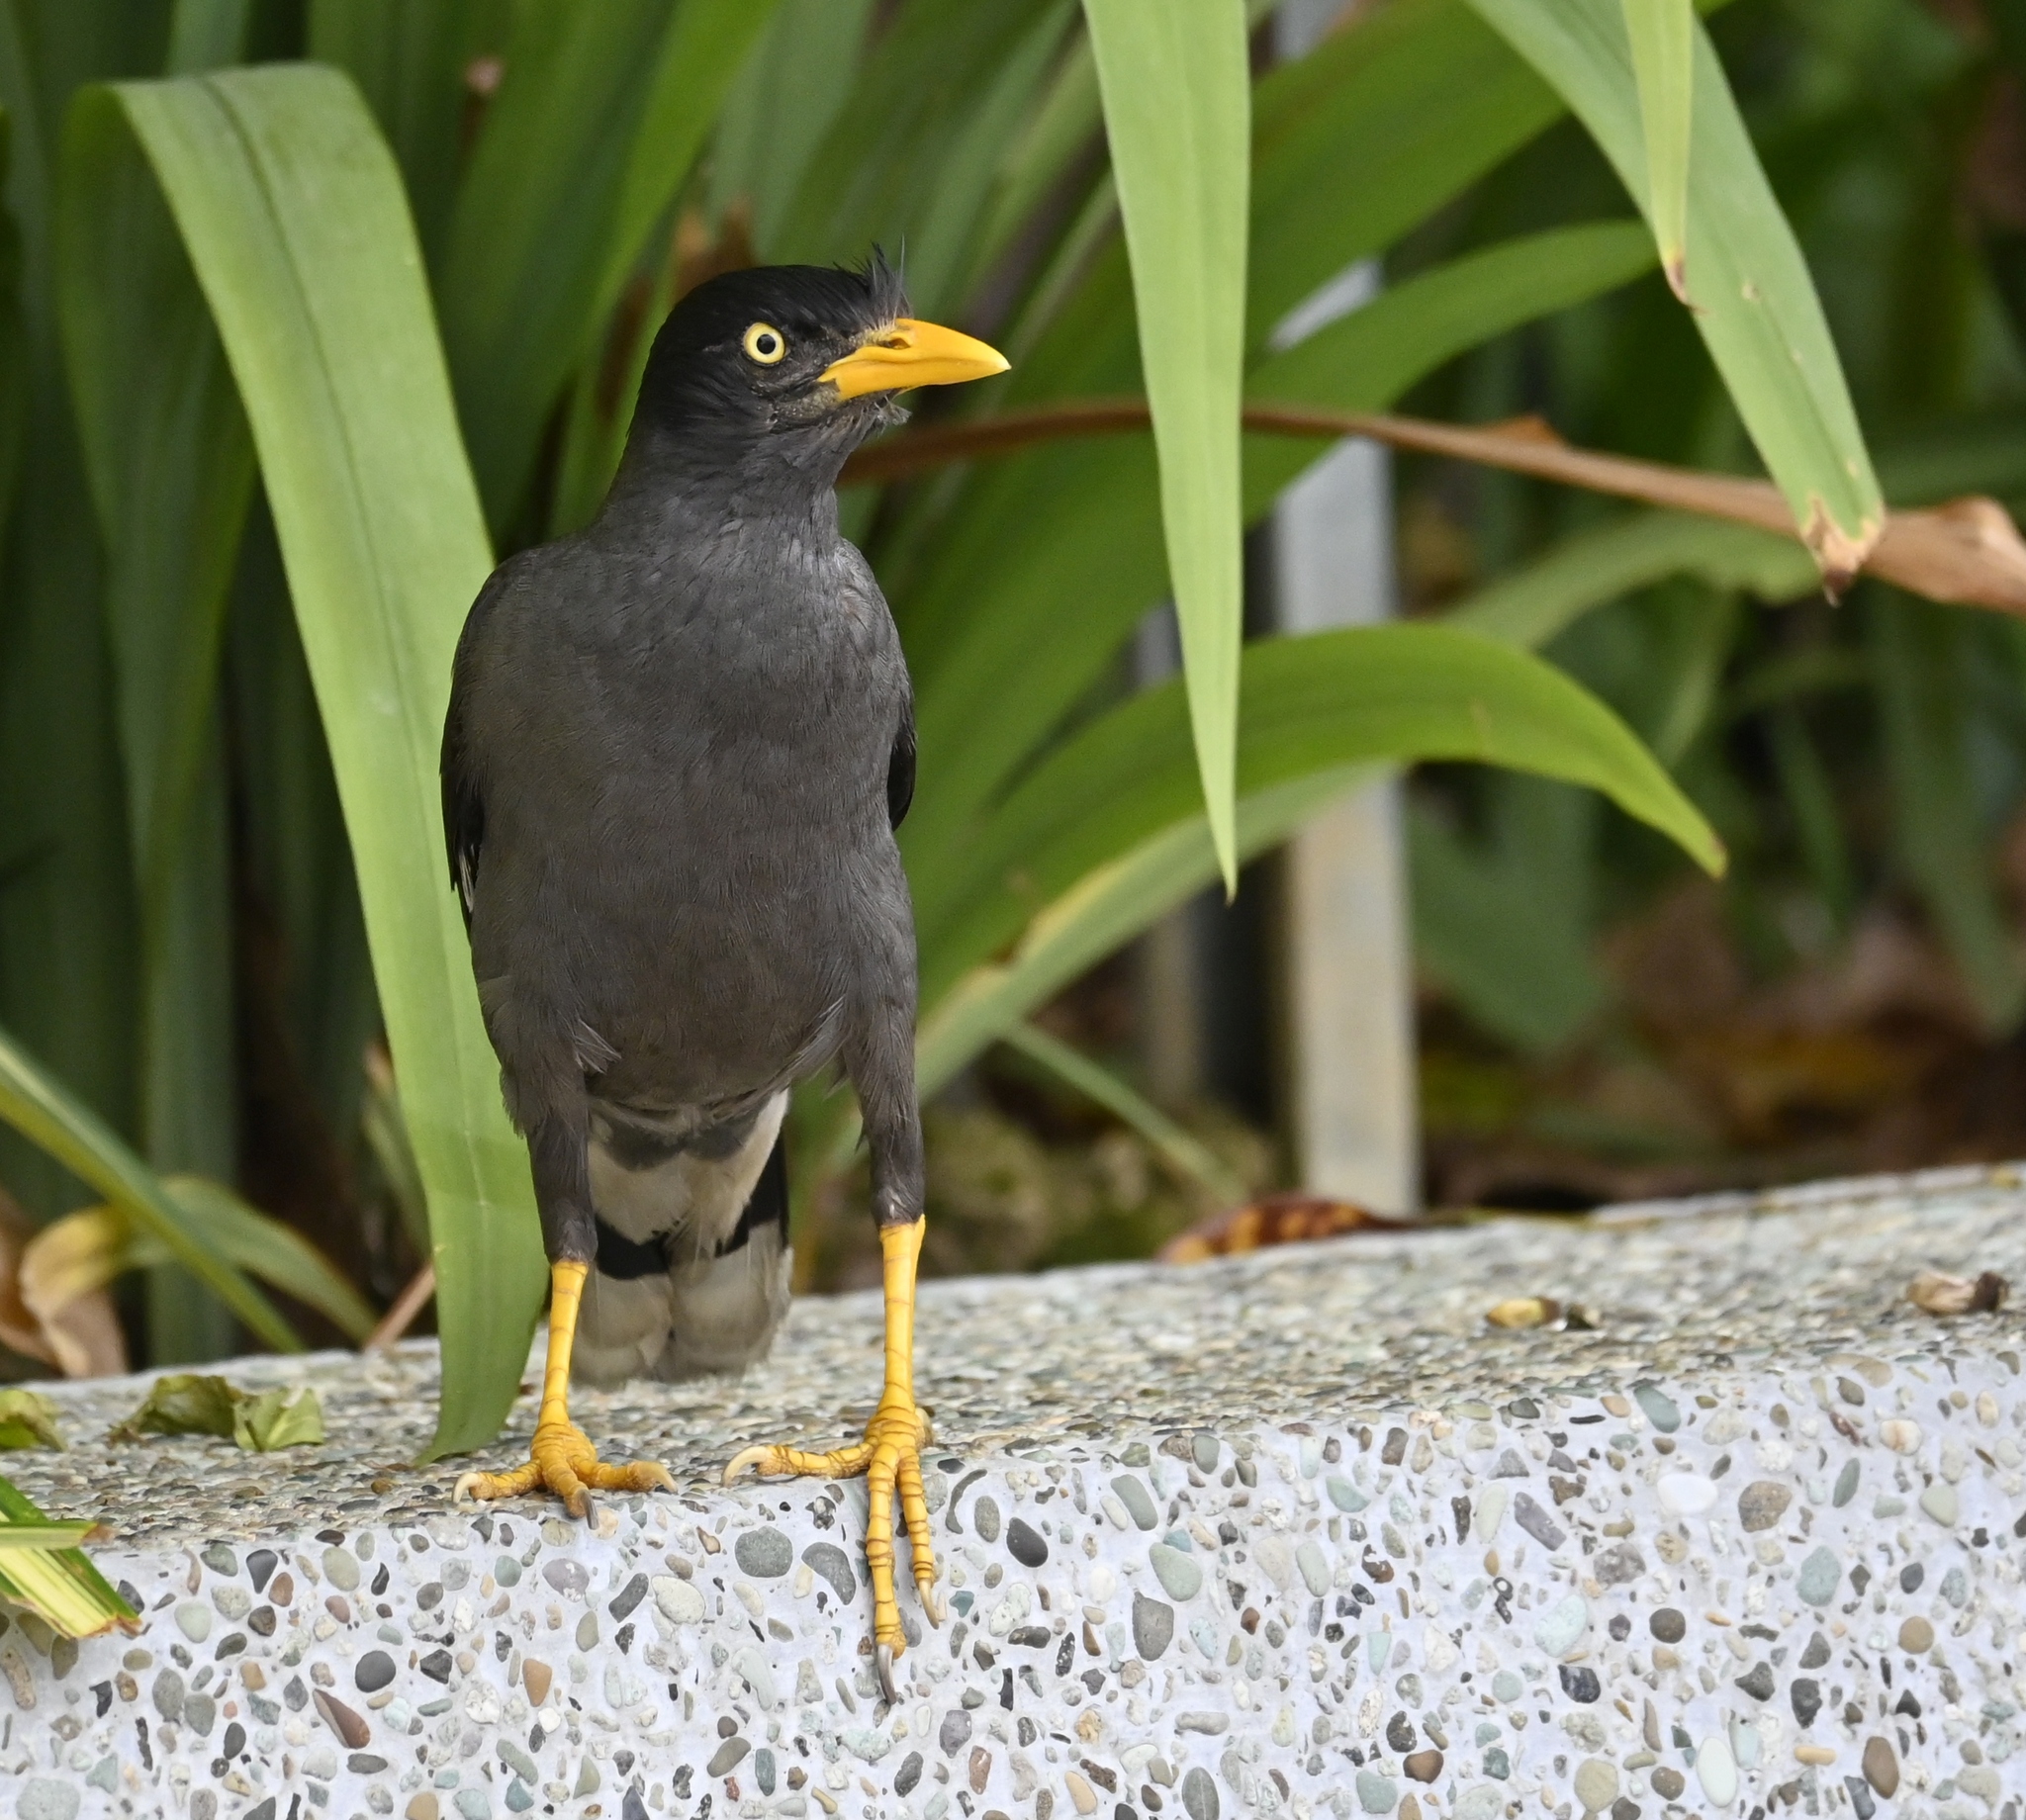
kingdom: Animalia
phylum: Chordata
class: Aves
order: Passeriformes
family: Sturnidae
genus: Acridotheres
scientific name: Acridotheres javanicus
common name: Javan myna
